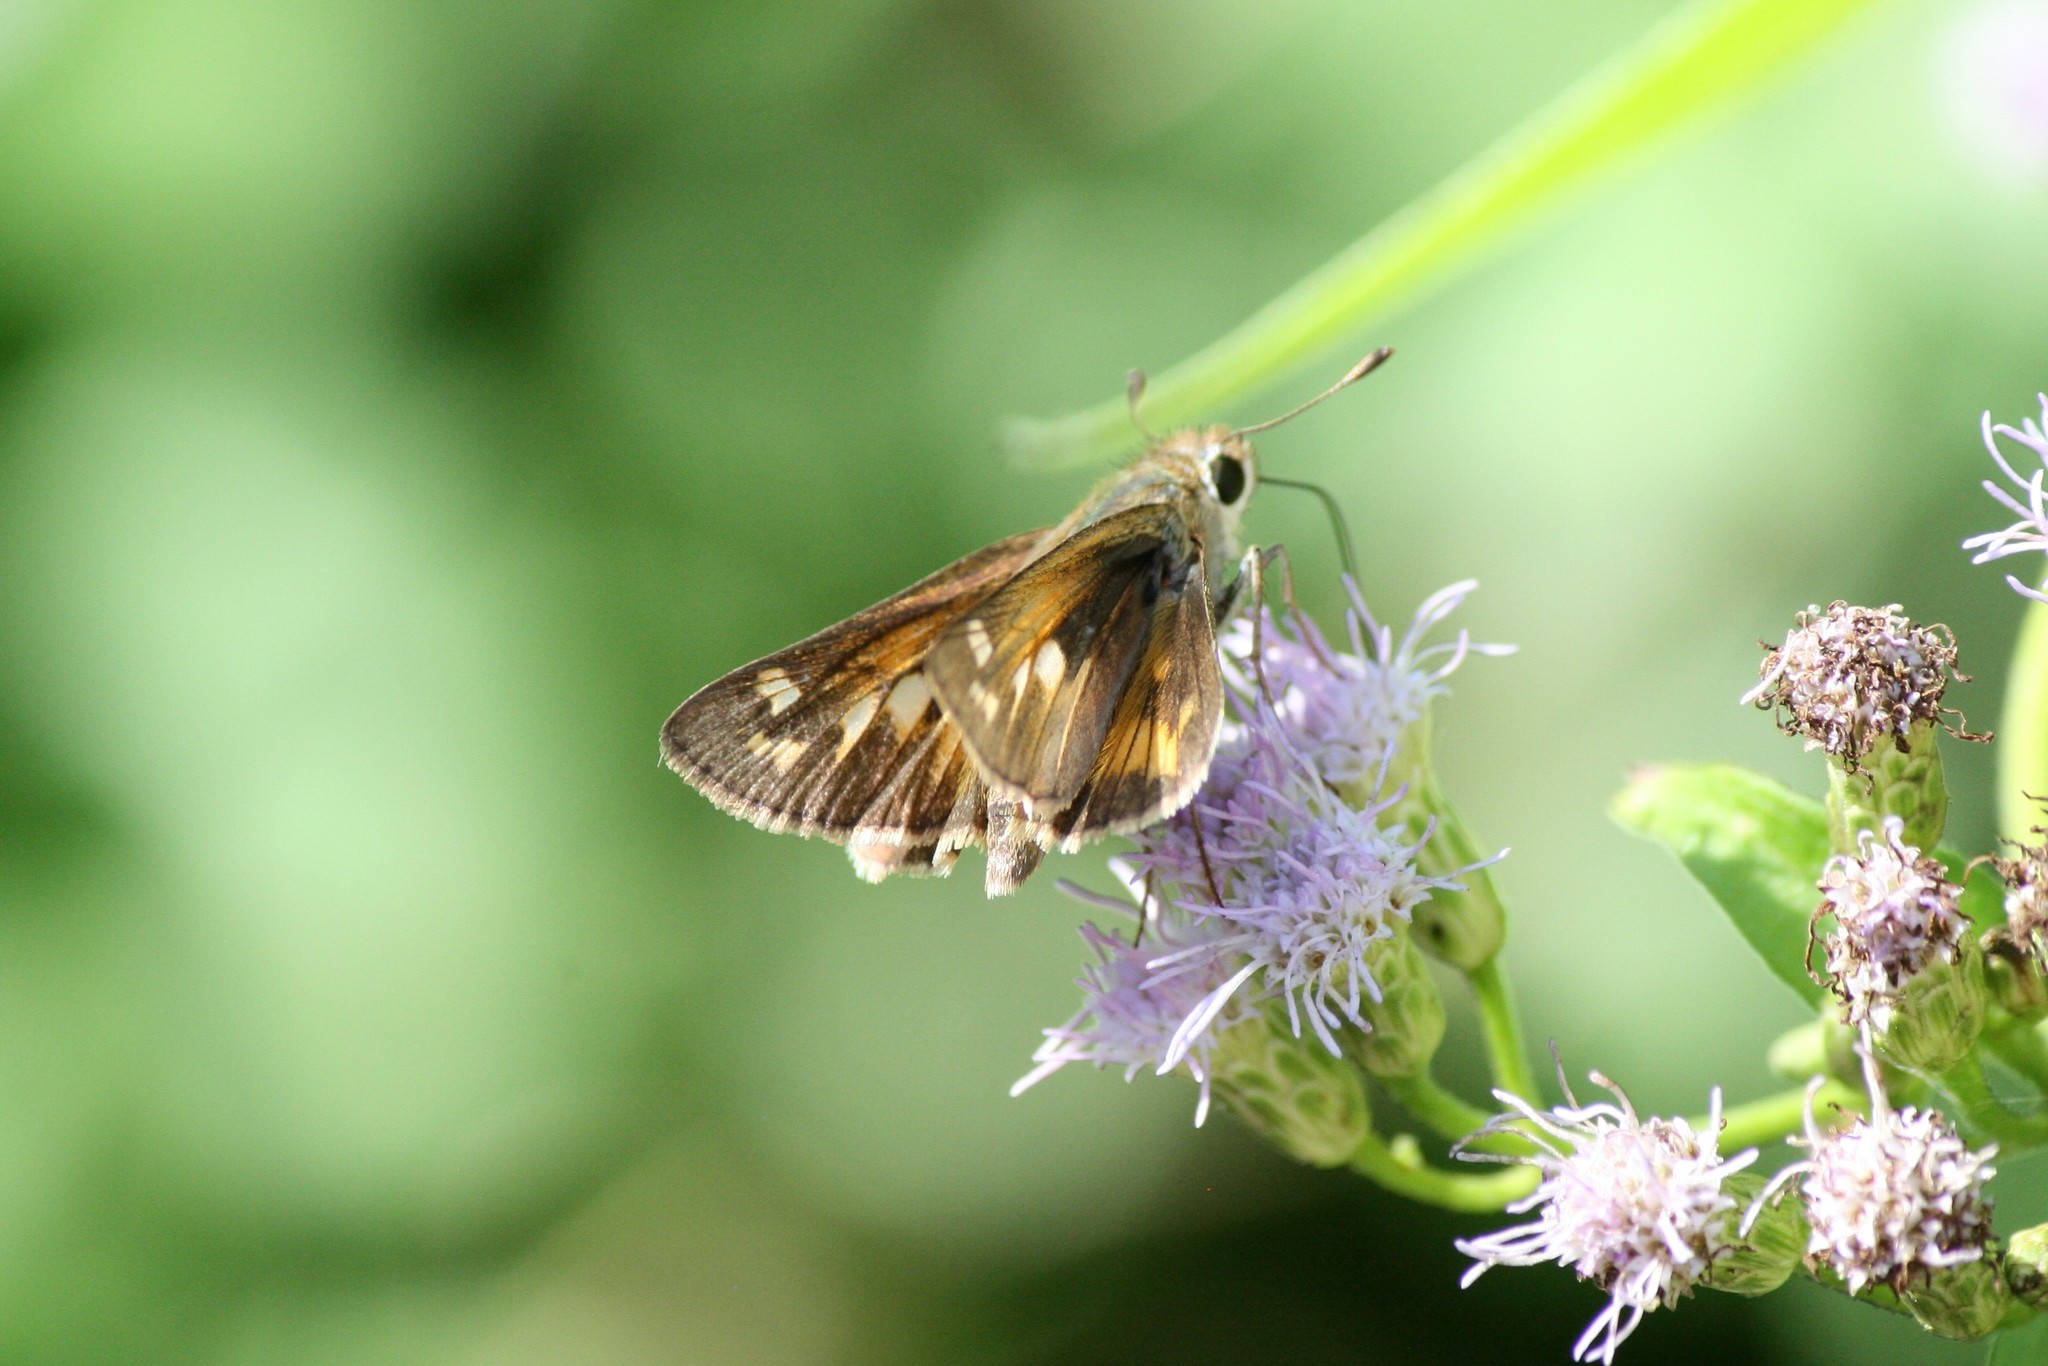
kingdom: Animalia
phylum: Arthropoda
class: Insecta
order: Lepidoptera
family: Hesperiidae
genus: Atalopedes
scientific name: Atalopedes
